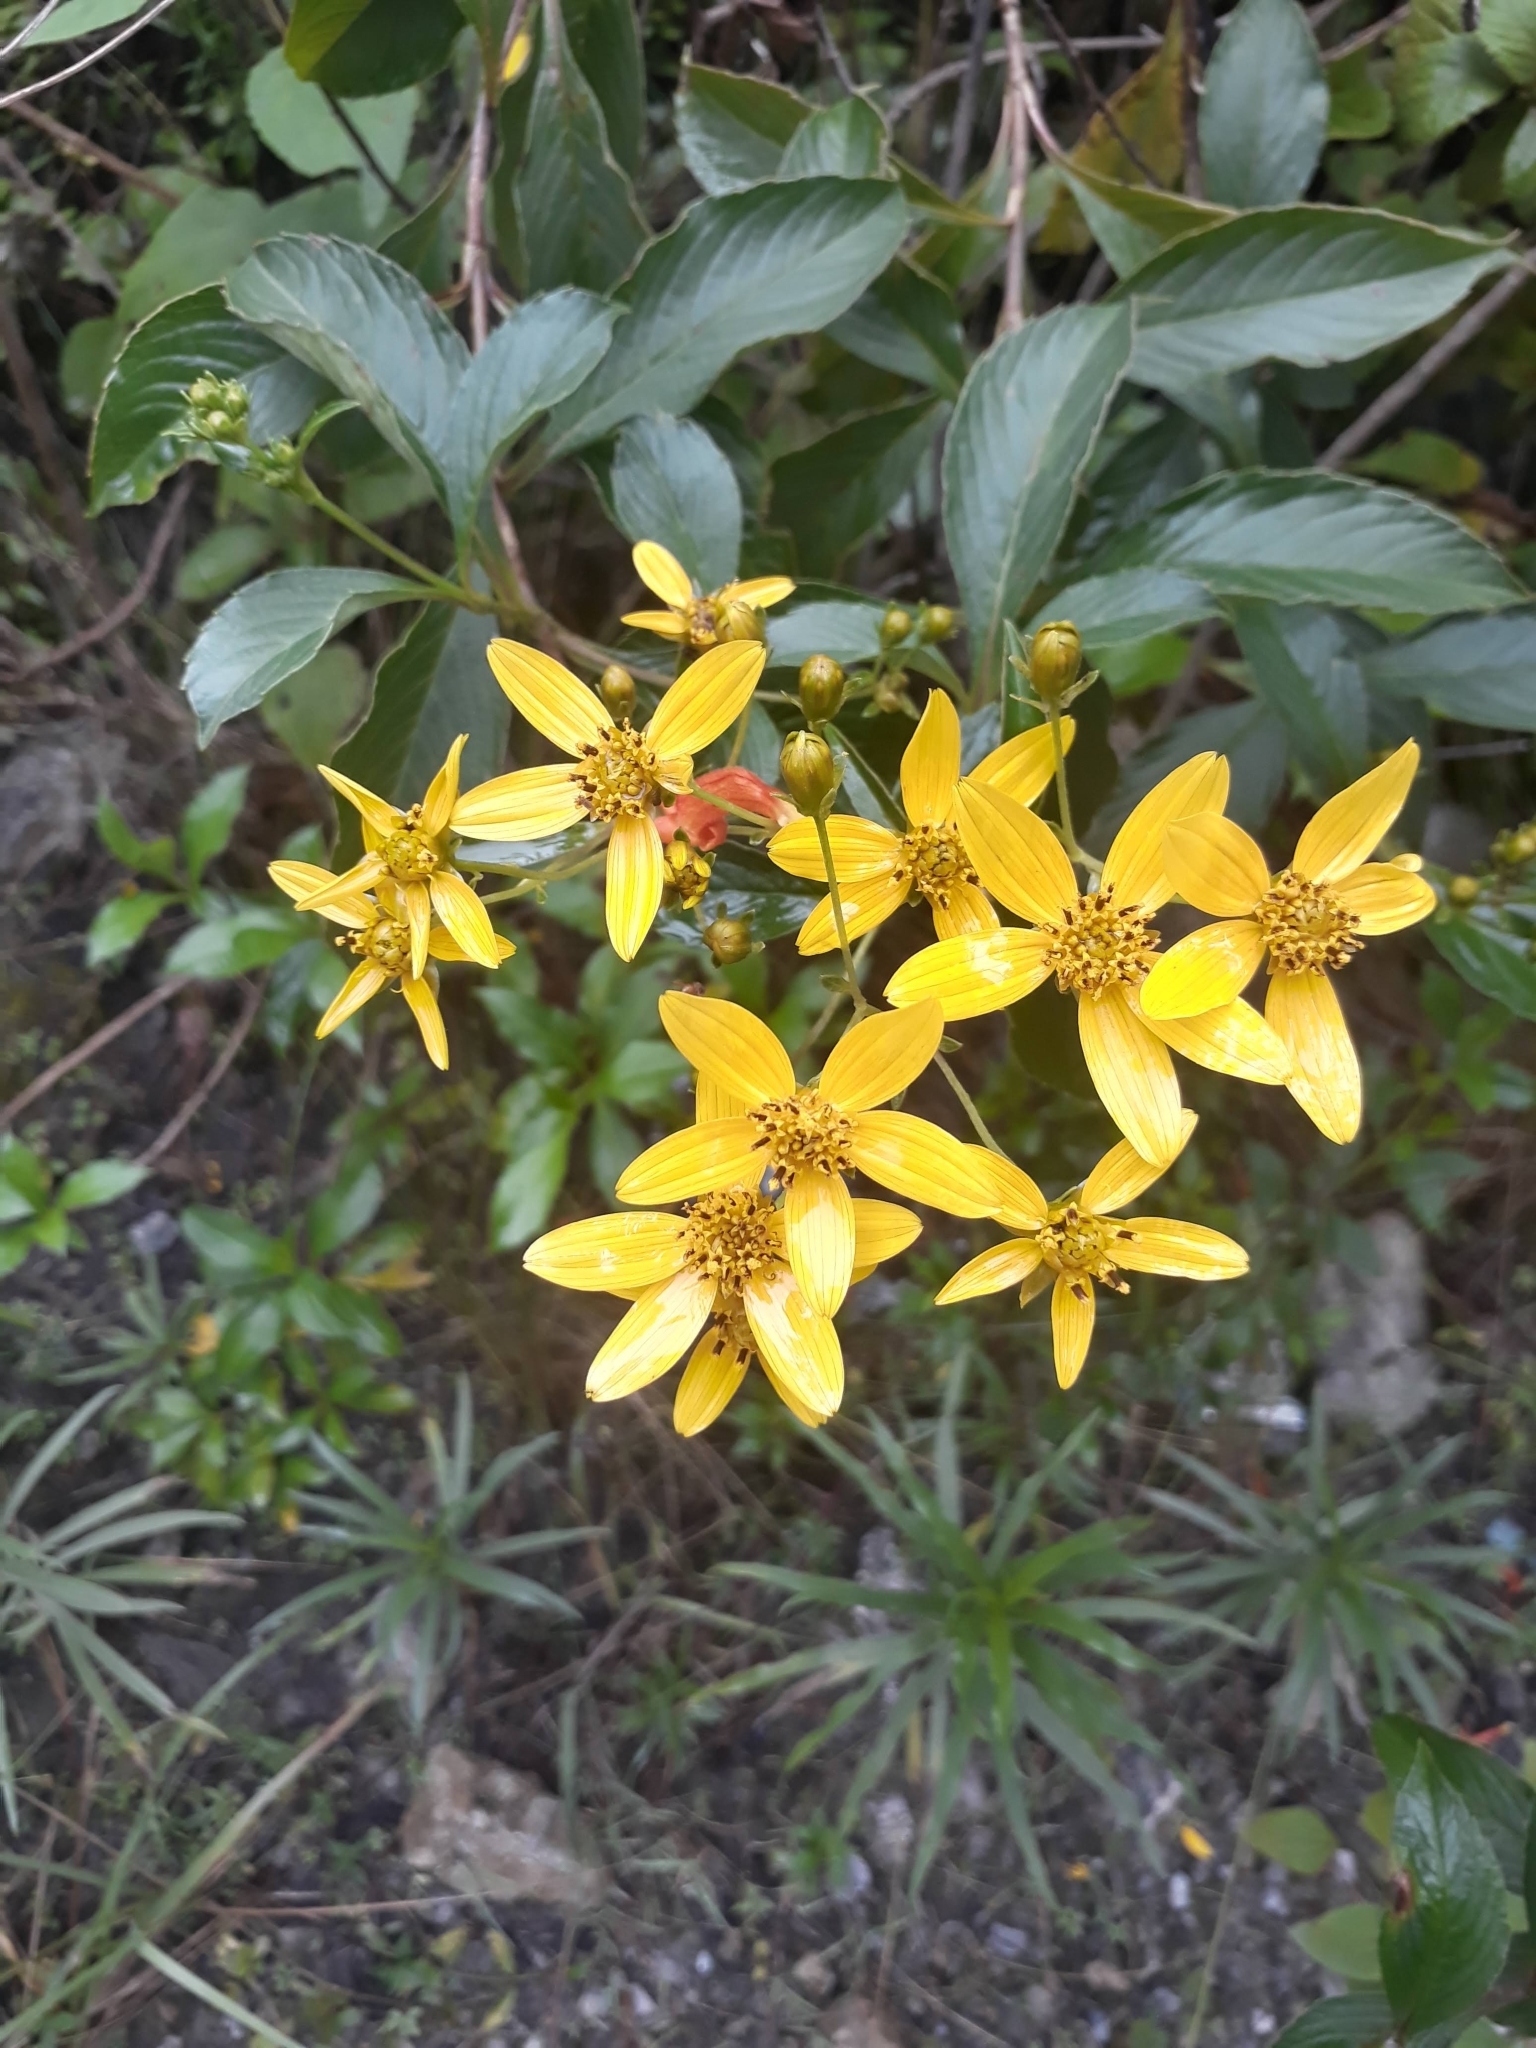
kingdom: Plantae
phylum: Tracheophyta
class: Magnoliopsida
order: Asterales
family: Asteraceae
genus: Electranthera
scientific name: Electranthera mutica
